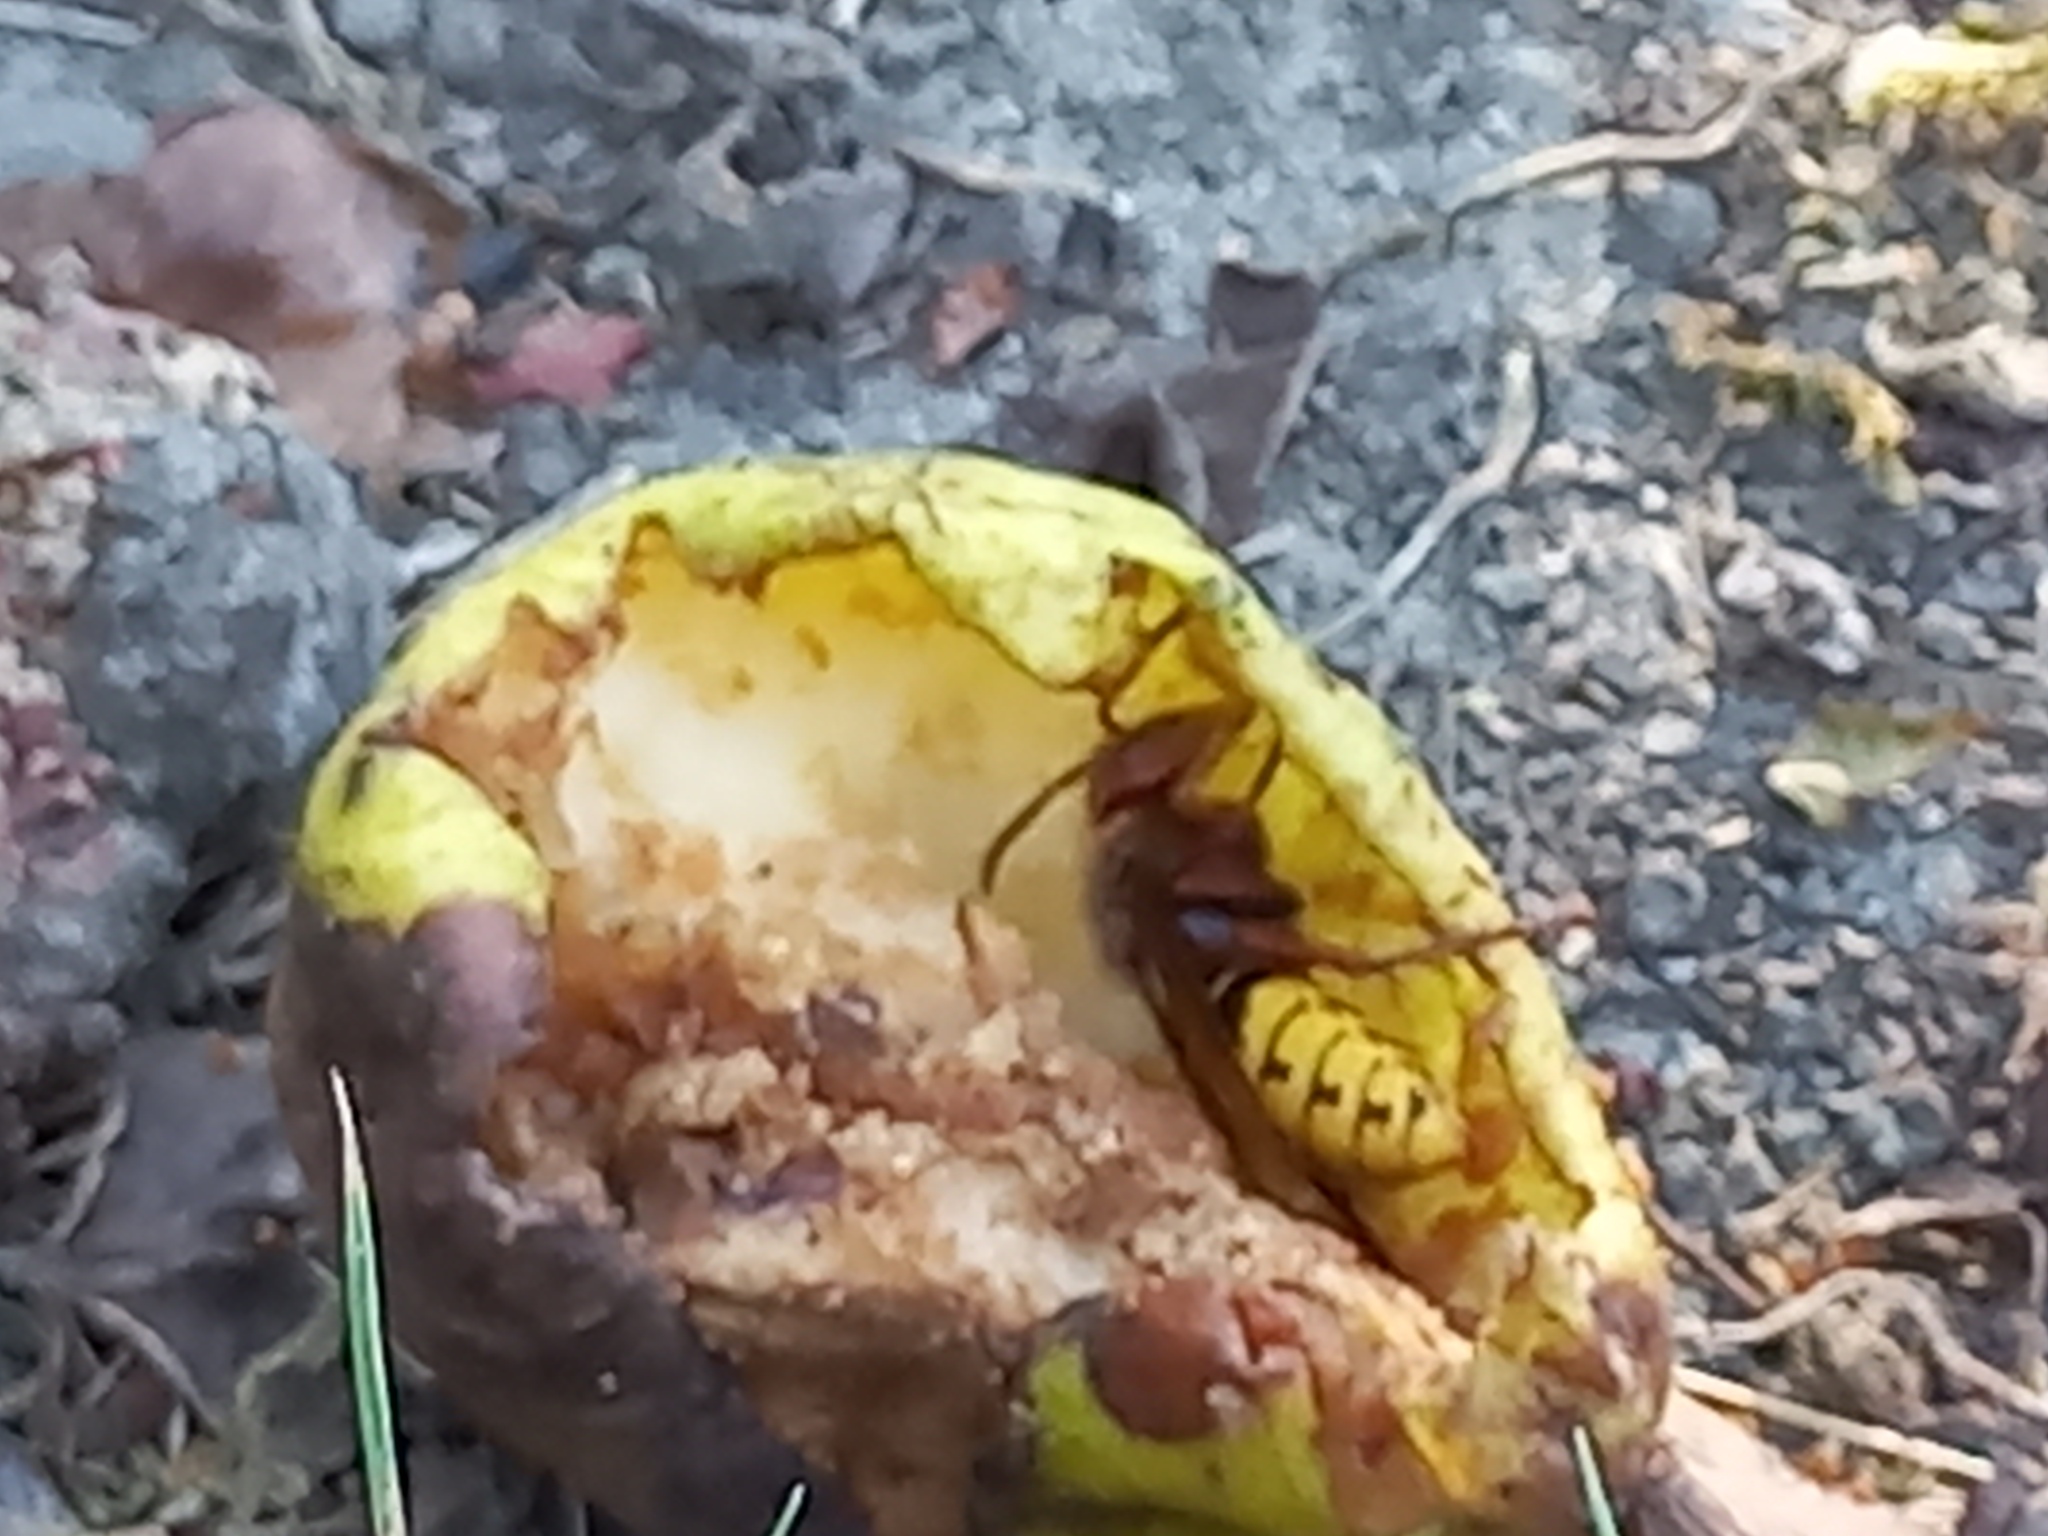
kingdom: Animalia
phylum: Arthropoda
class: Insecta
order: Hymenoptera
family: Vespidae
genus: Vespa
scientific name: Vespa crabro
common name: Hornet
